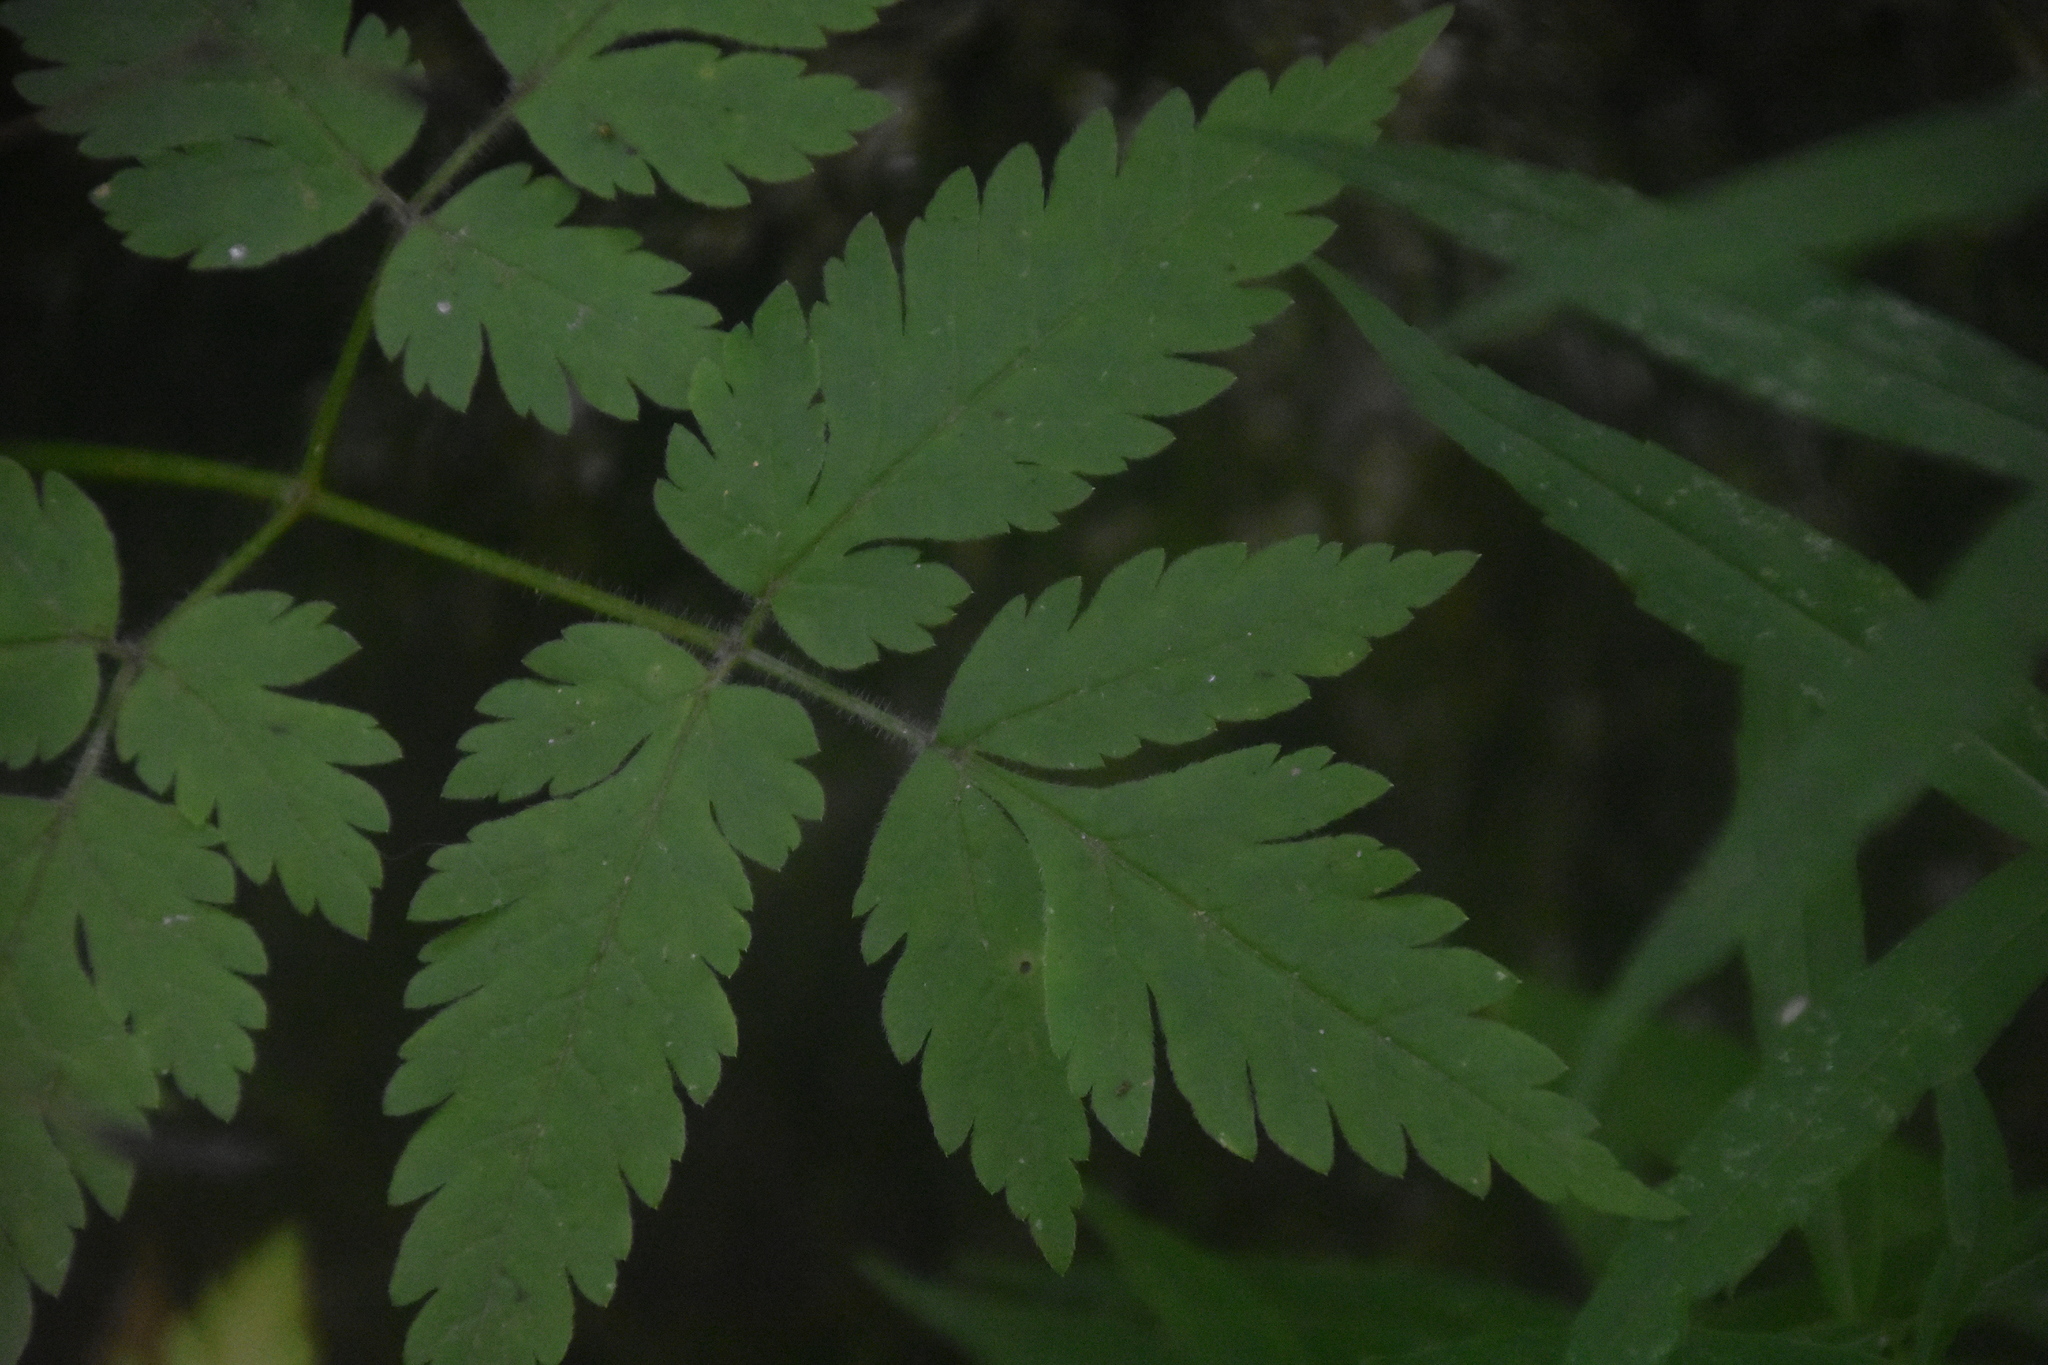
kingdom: Plantae
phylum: Tracheophyta
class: Magnoliopsida
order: Apiales
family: Apiaceae
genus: Osmorhiza
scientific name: Osmorhiza claytonii
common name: Hairy sweet cicely
